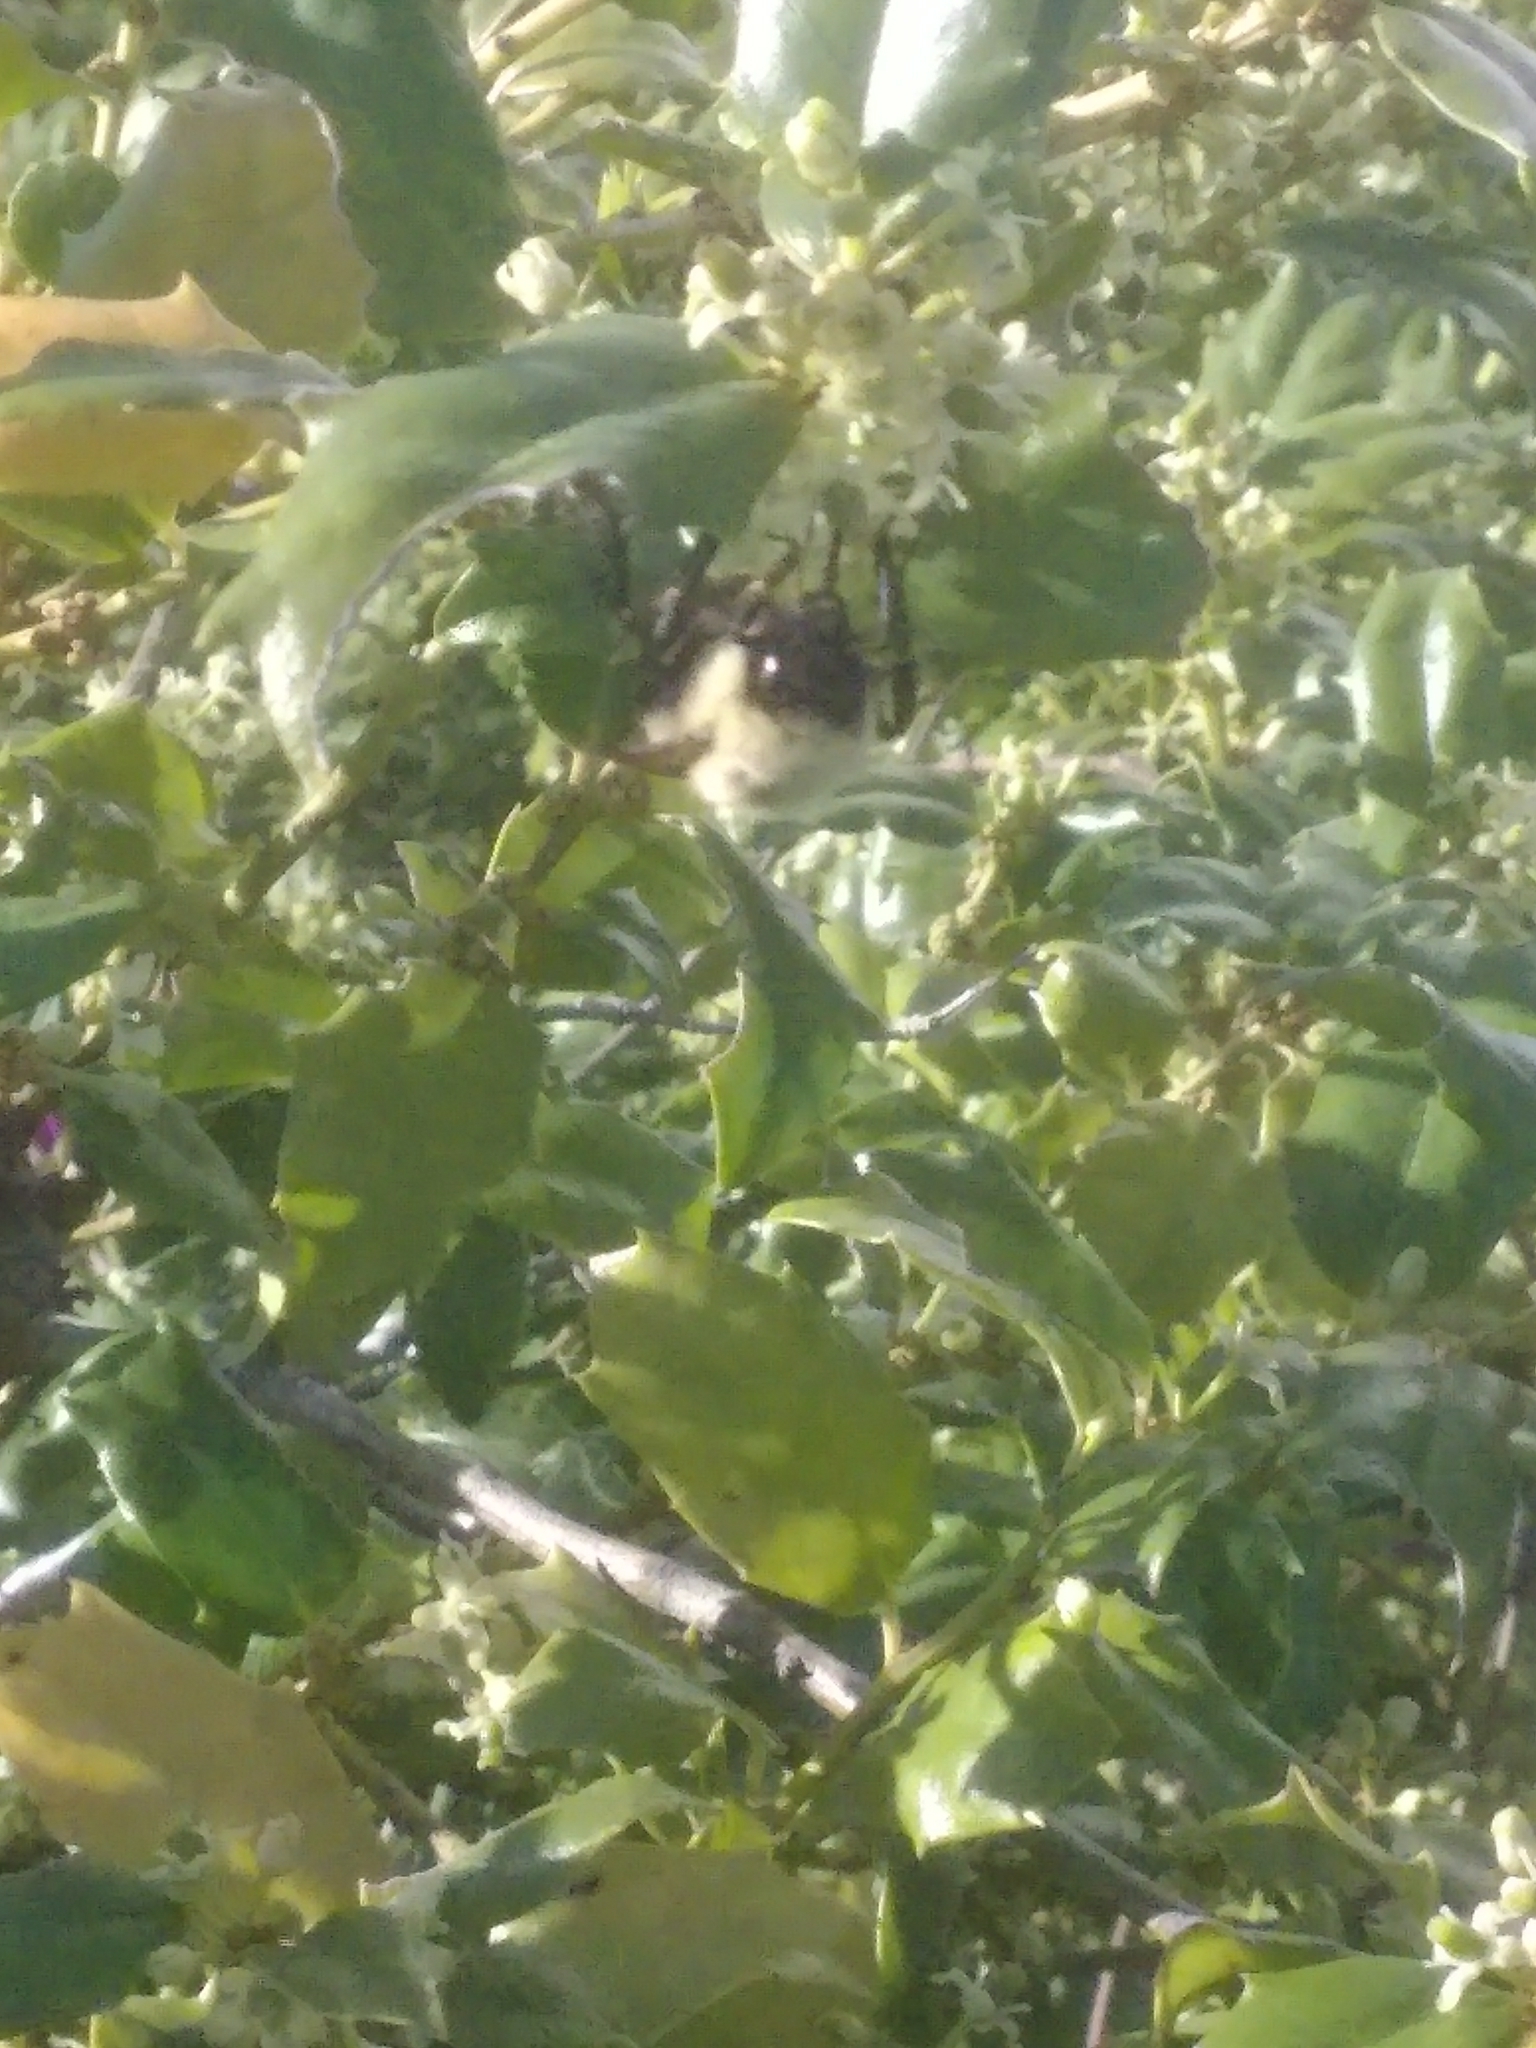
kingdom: Animalia
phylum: Arthropoda
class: Insecta
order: Hymenoptera
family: Apidae
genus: Bombus
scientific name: Bombus impatiens
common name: Common eastern bumble bee
